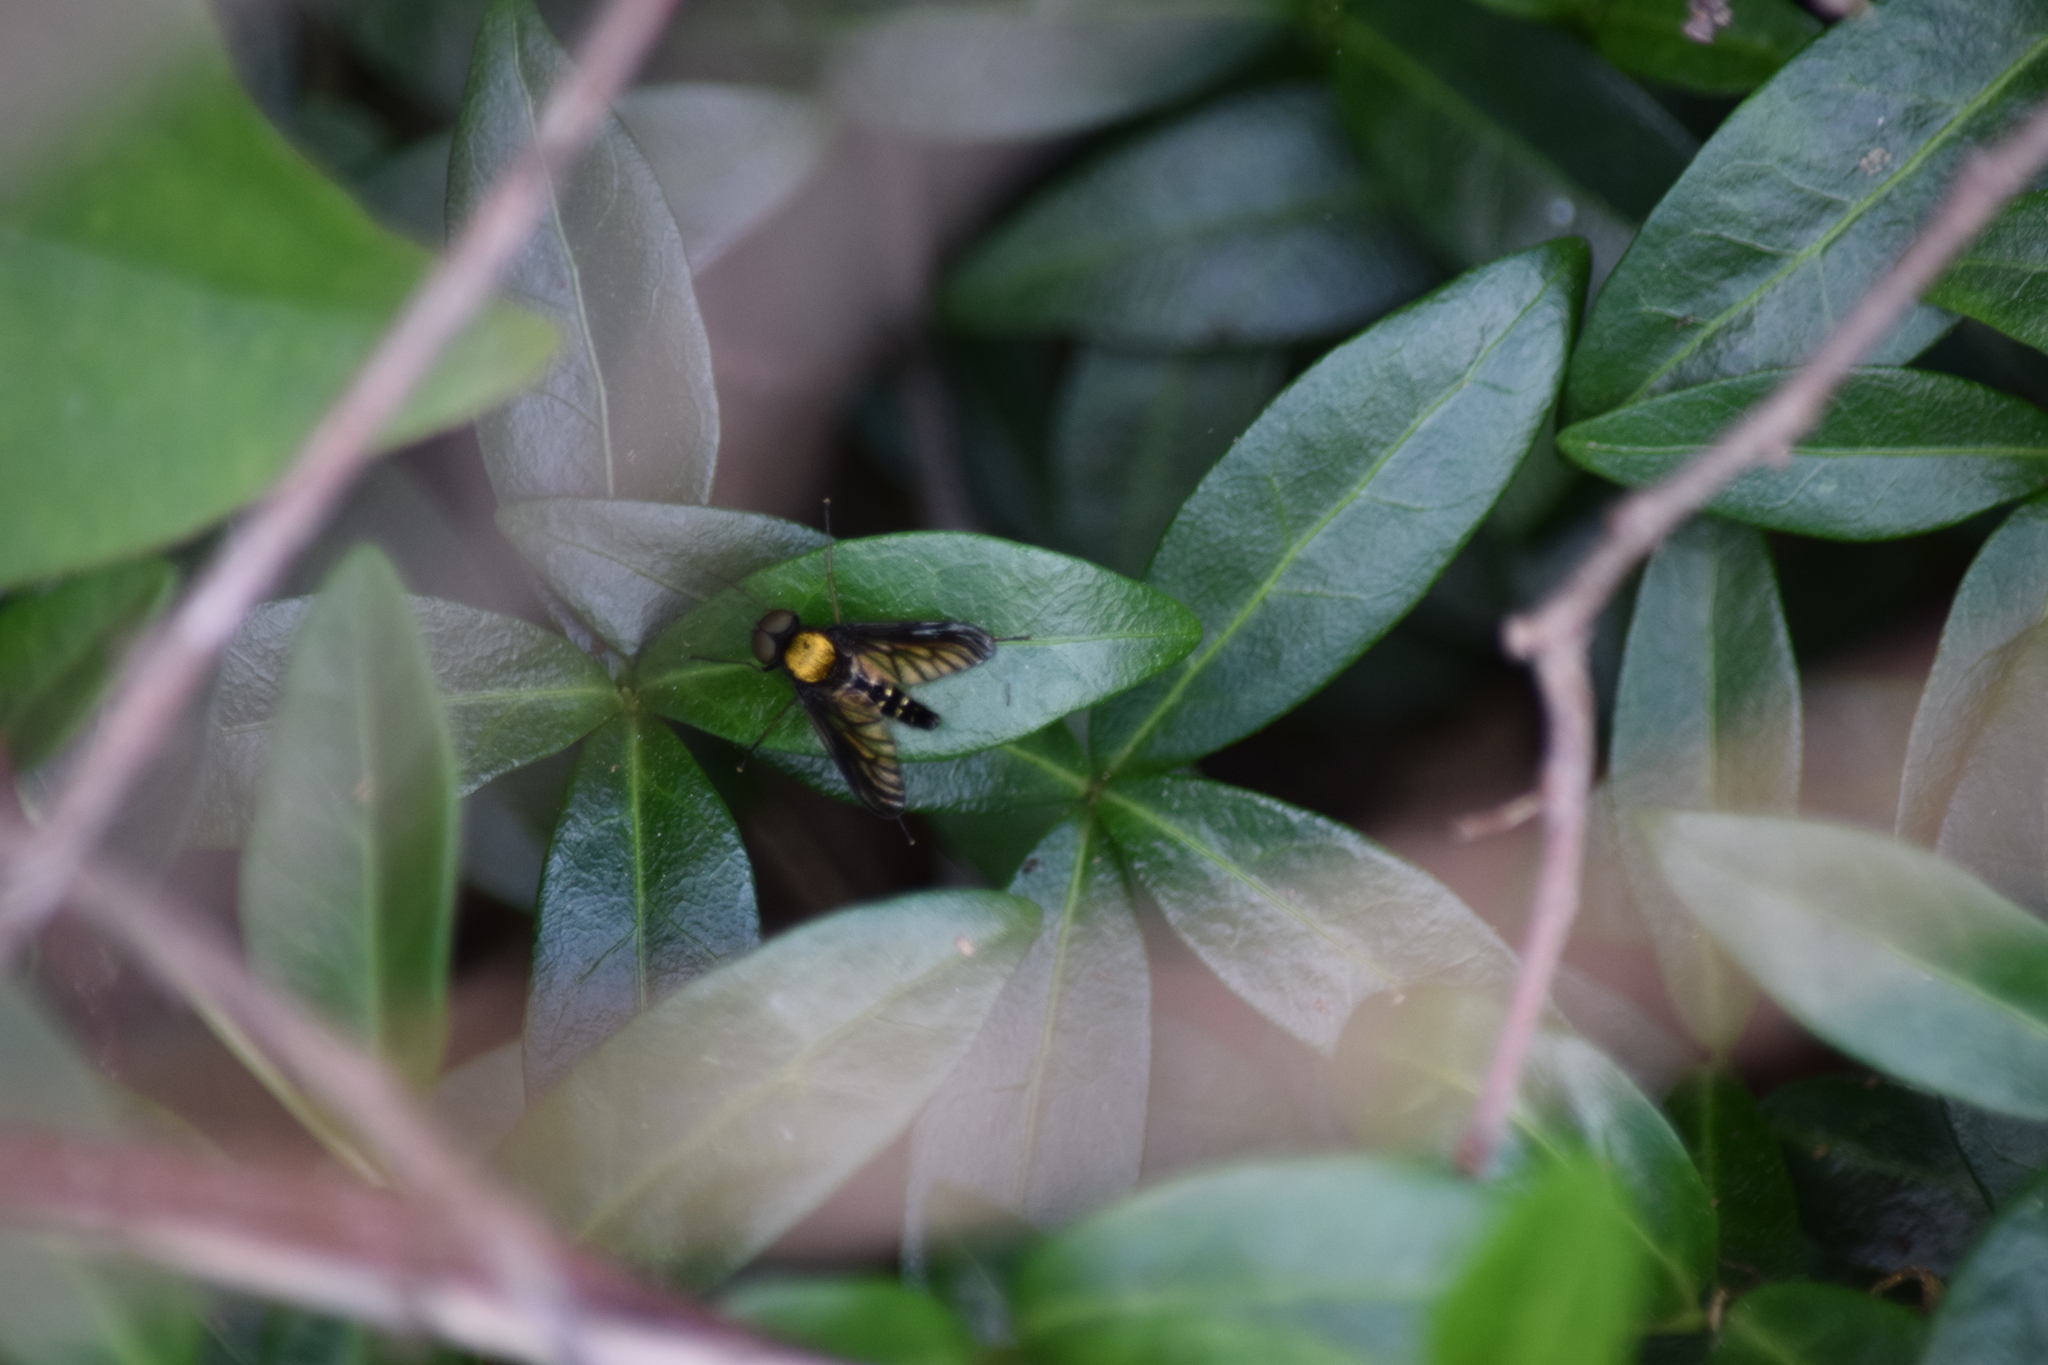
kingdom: Animalia
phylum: Arthropoda
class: Insecta
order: Diptera
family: Rhagionidae
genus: Chrysopilus
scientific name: Chrysopilus thoracicus
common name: Golden-backed snipe fly
